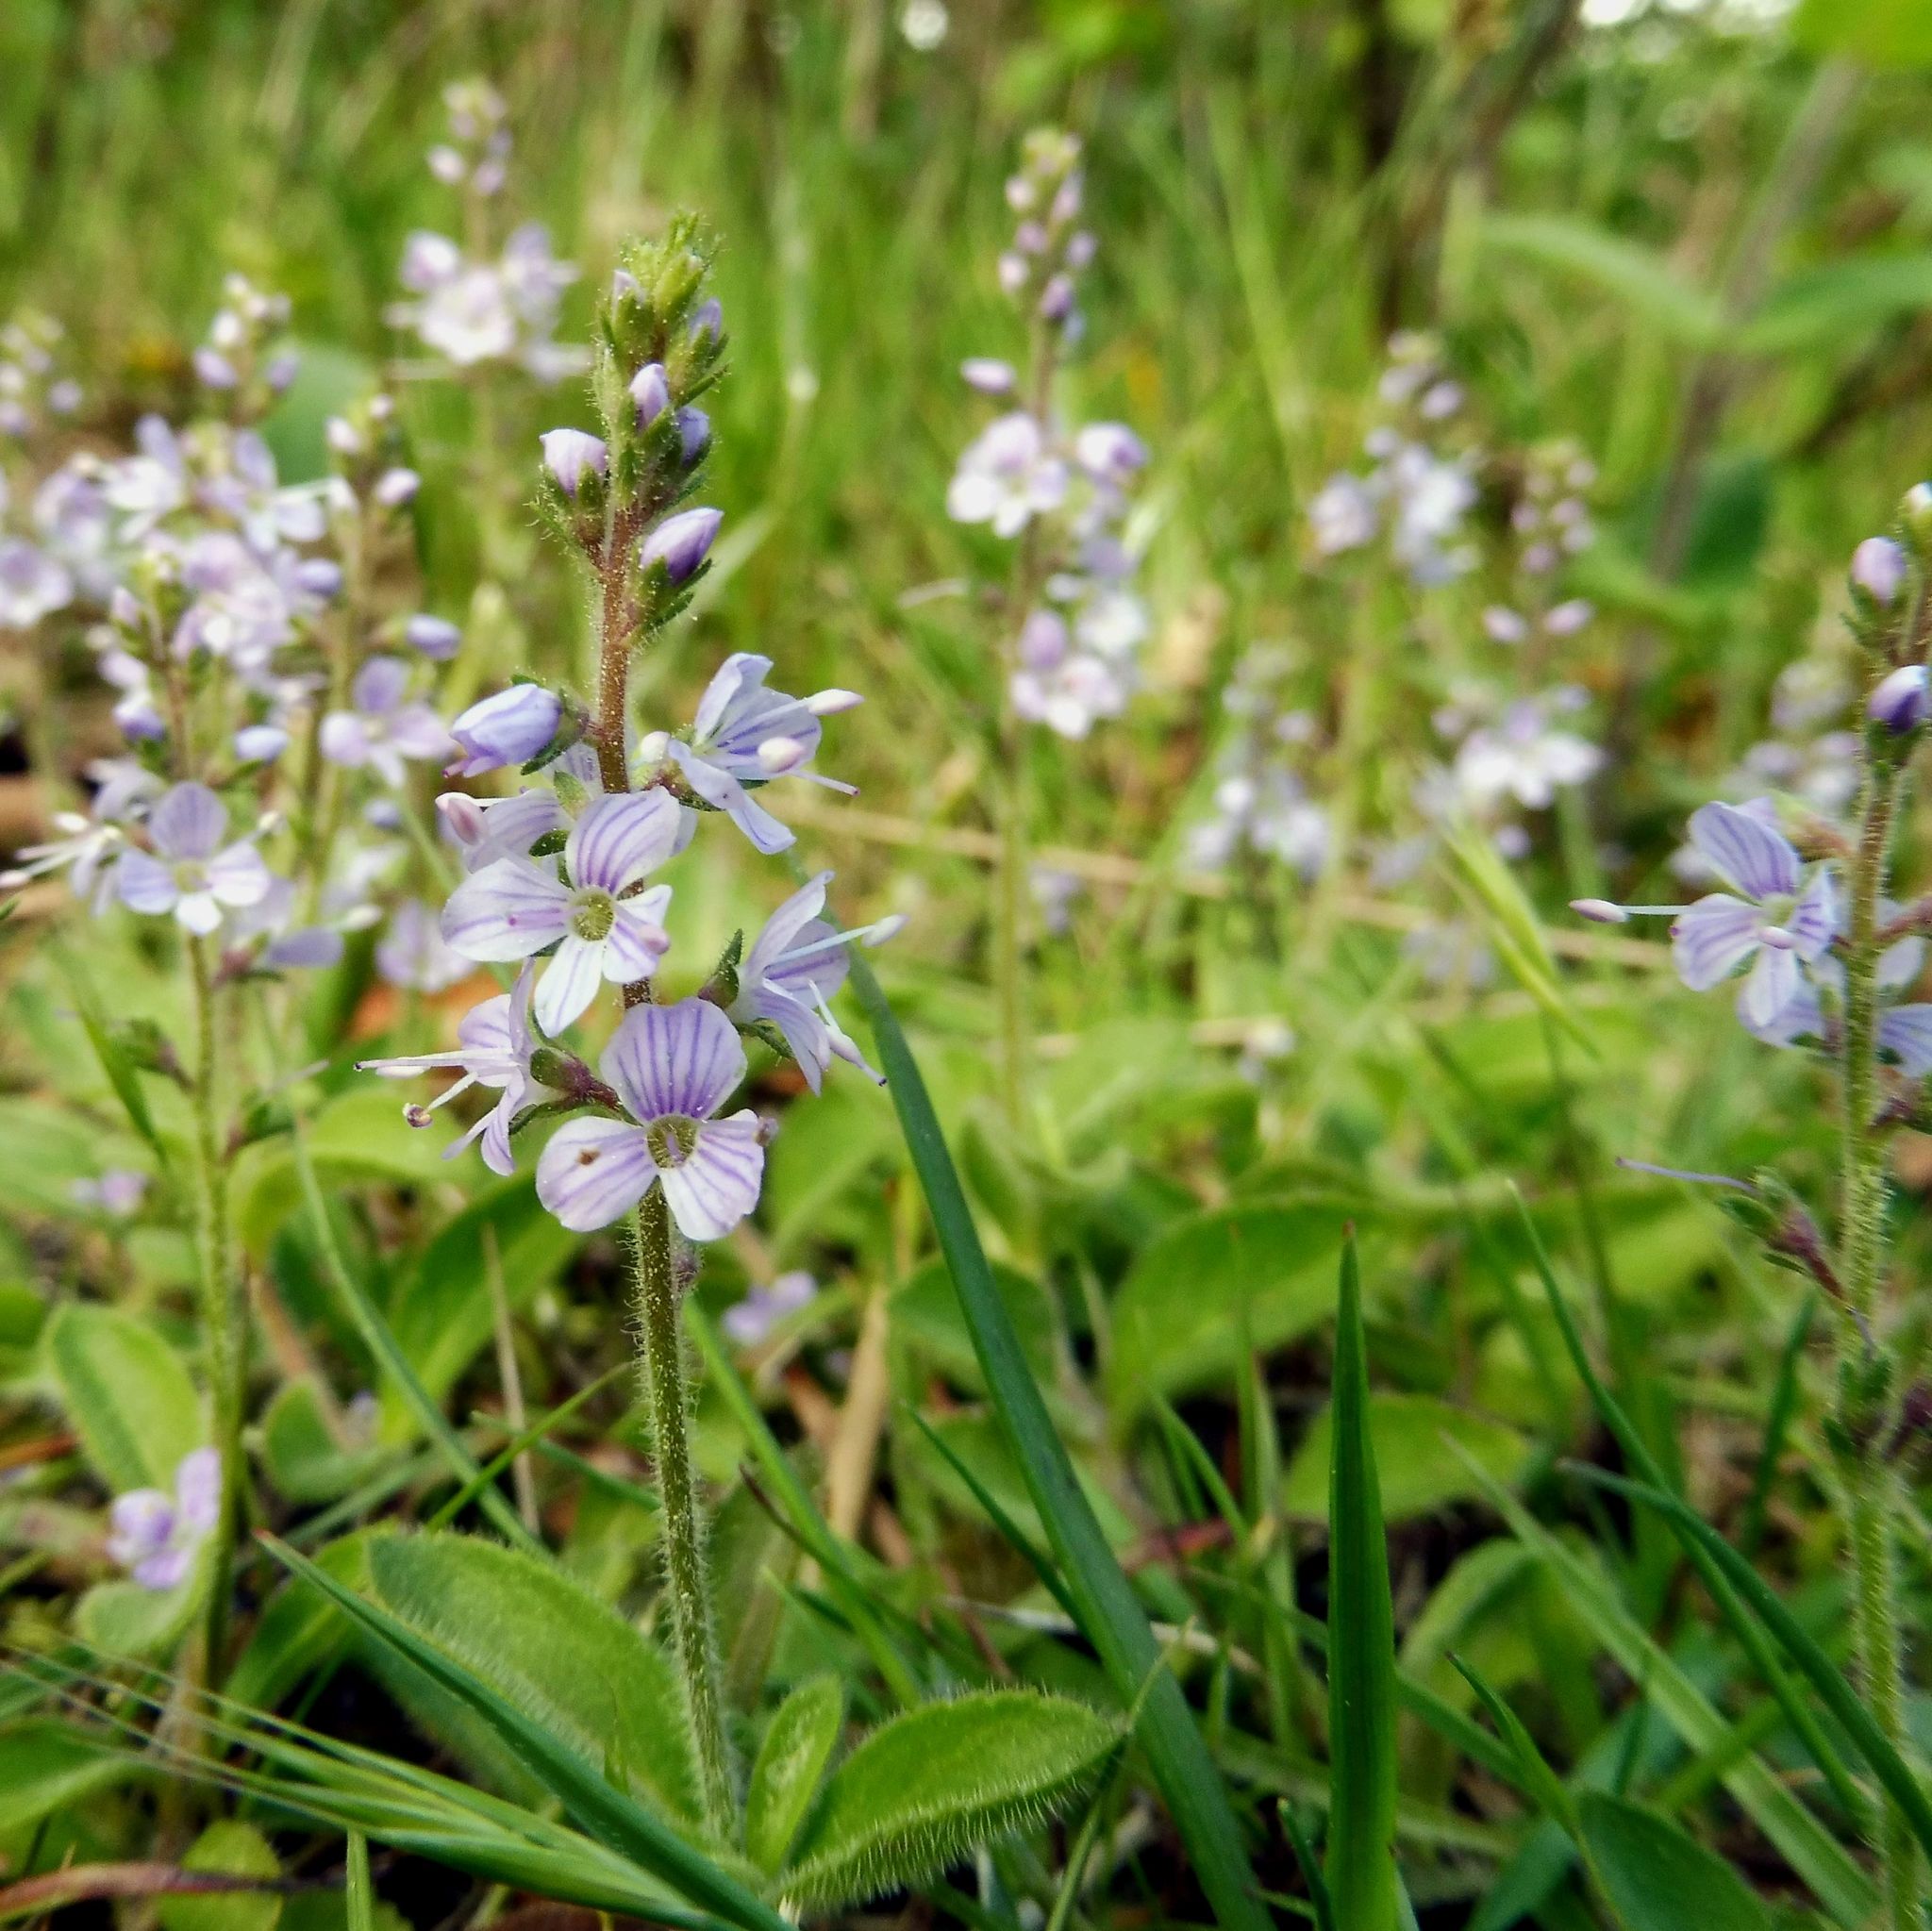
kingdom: Plantae
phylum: Tracheophyta
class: Magnoliopsida
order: Lamiales
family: Plantaginaceae
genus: Veronica
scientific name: Veronica officinalis
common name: Common speedwell
